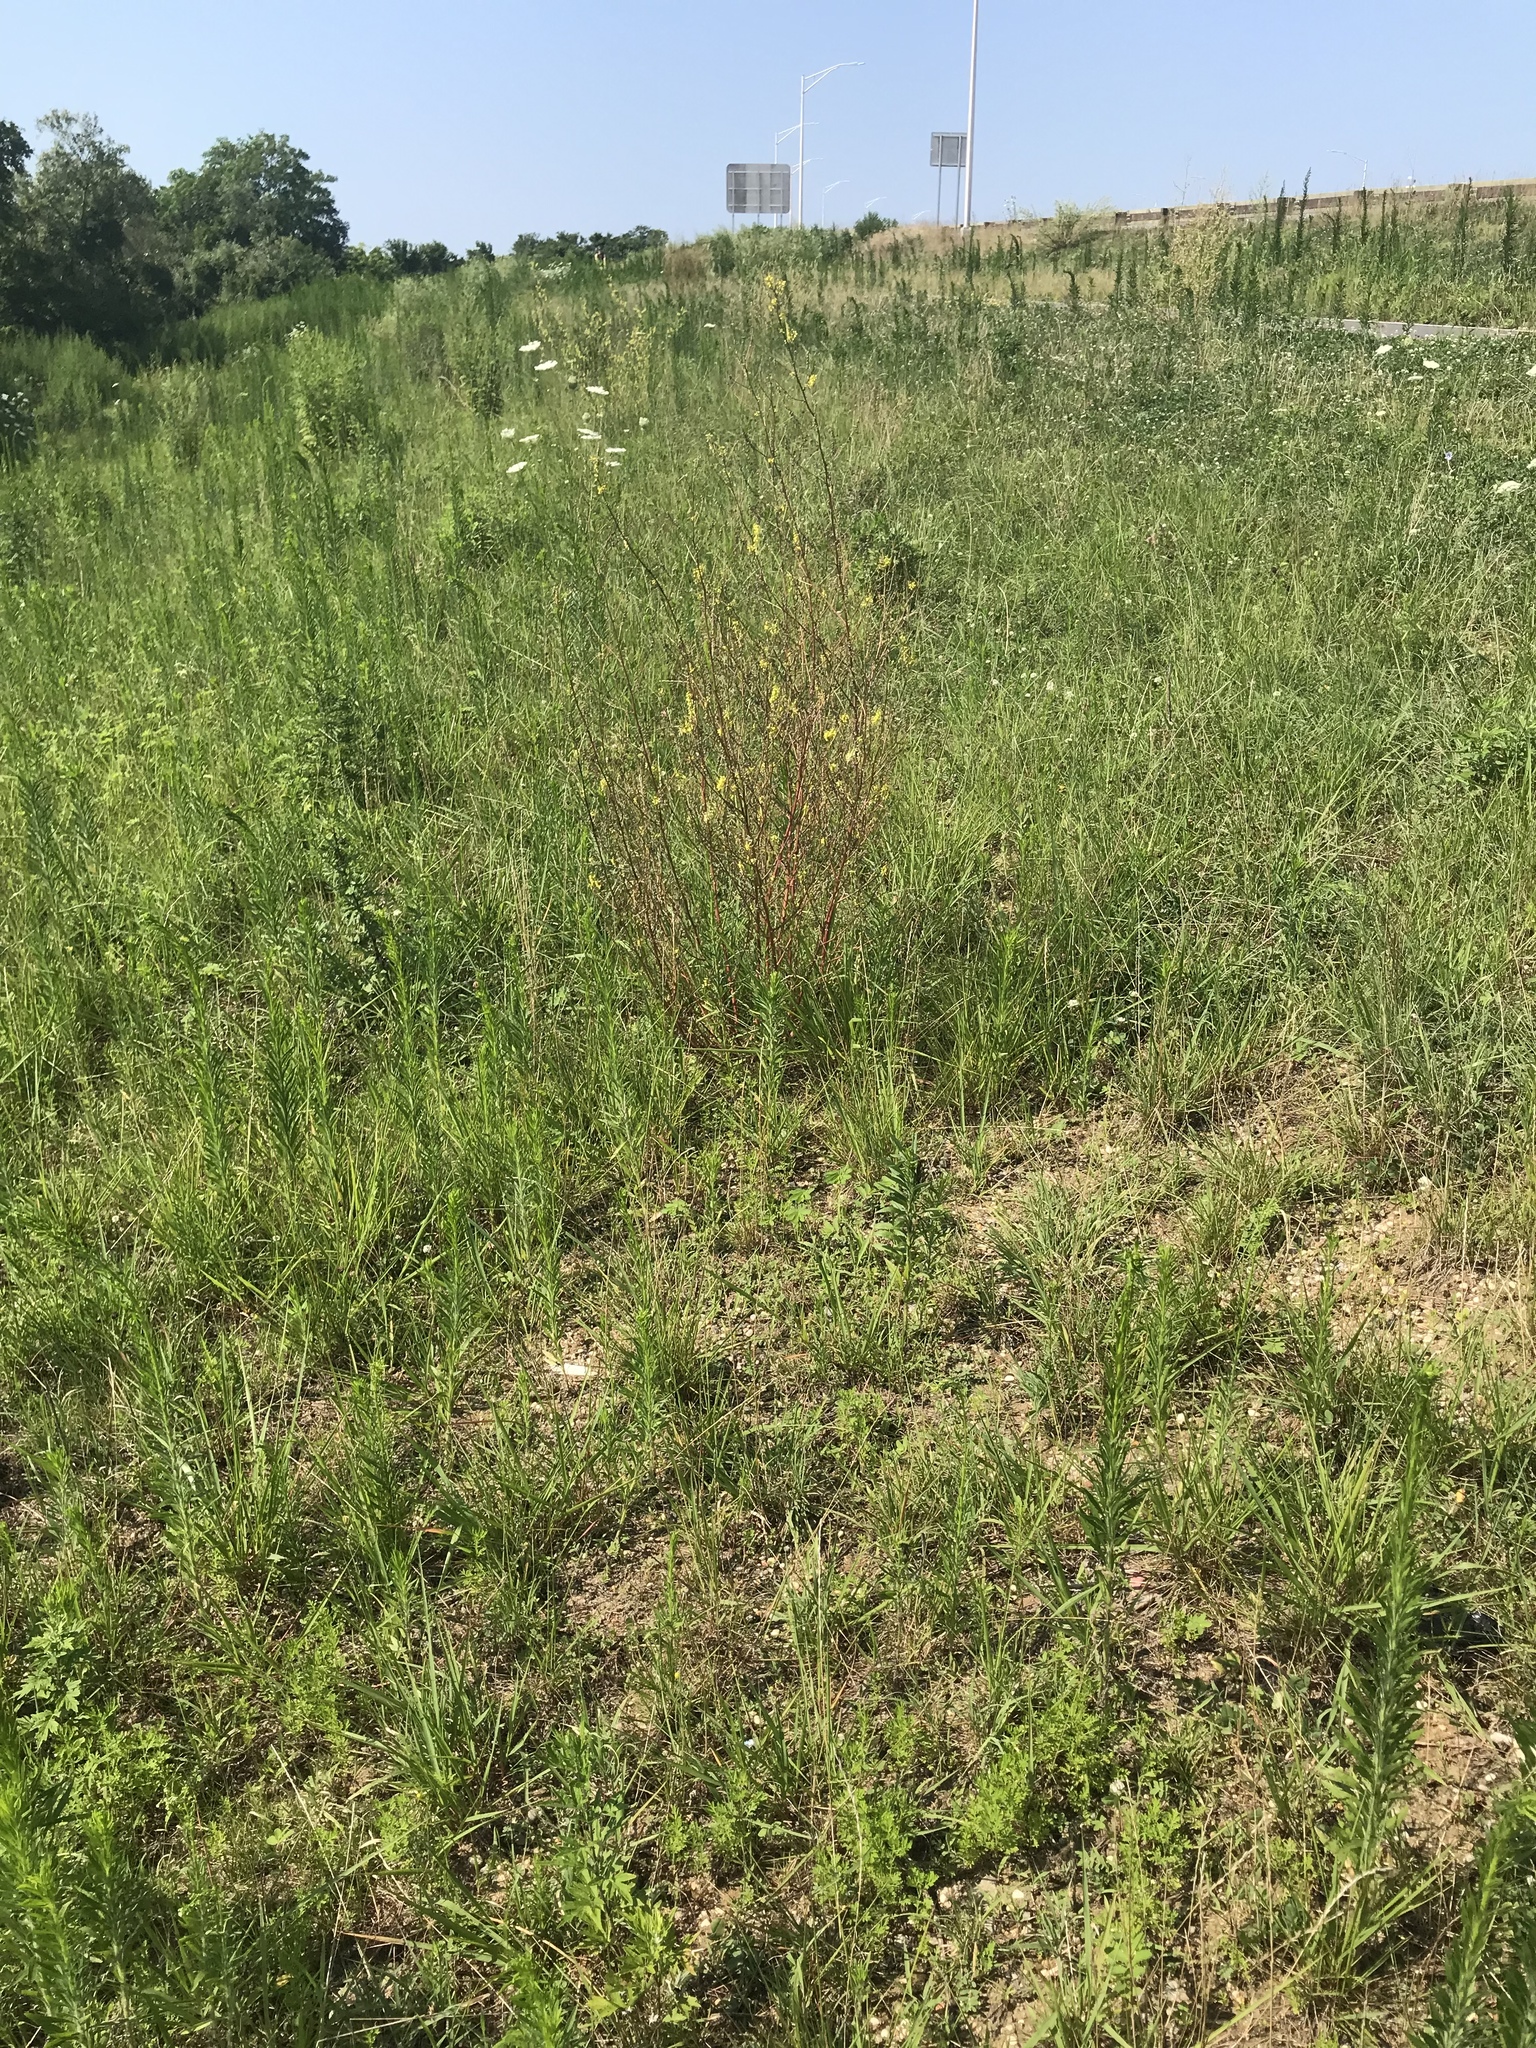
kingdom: Plantae
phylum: Tracheophyta
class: Magnoliopsida
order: Fabales
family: Fabaceae
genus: Melilotus
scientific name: Melilotus officinalis
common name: Sweetclover
